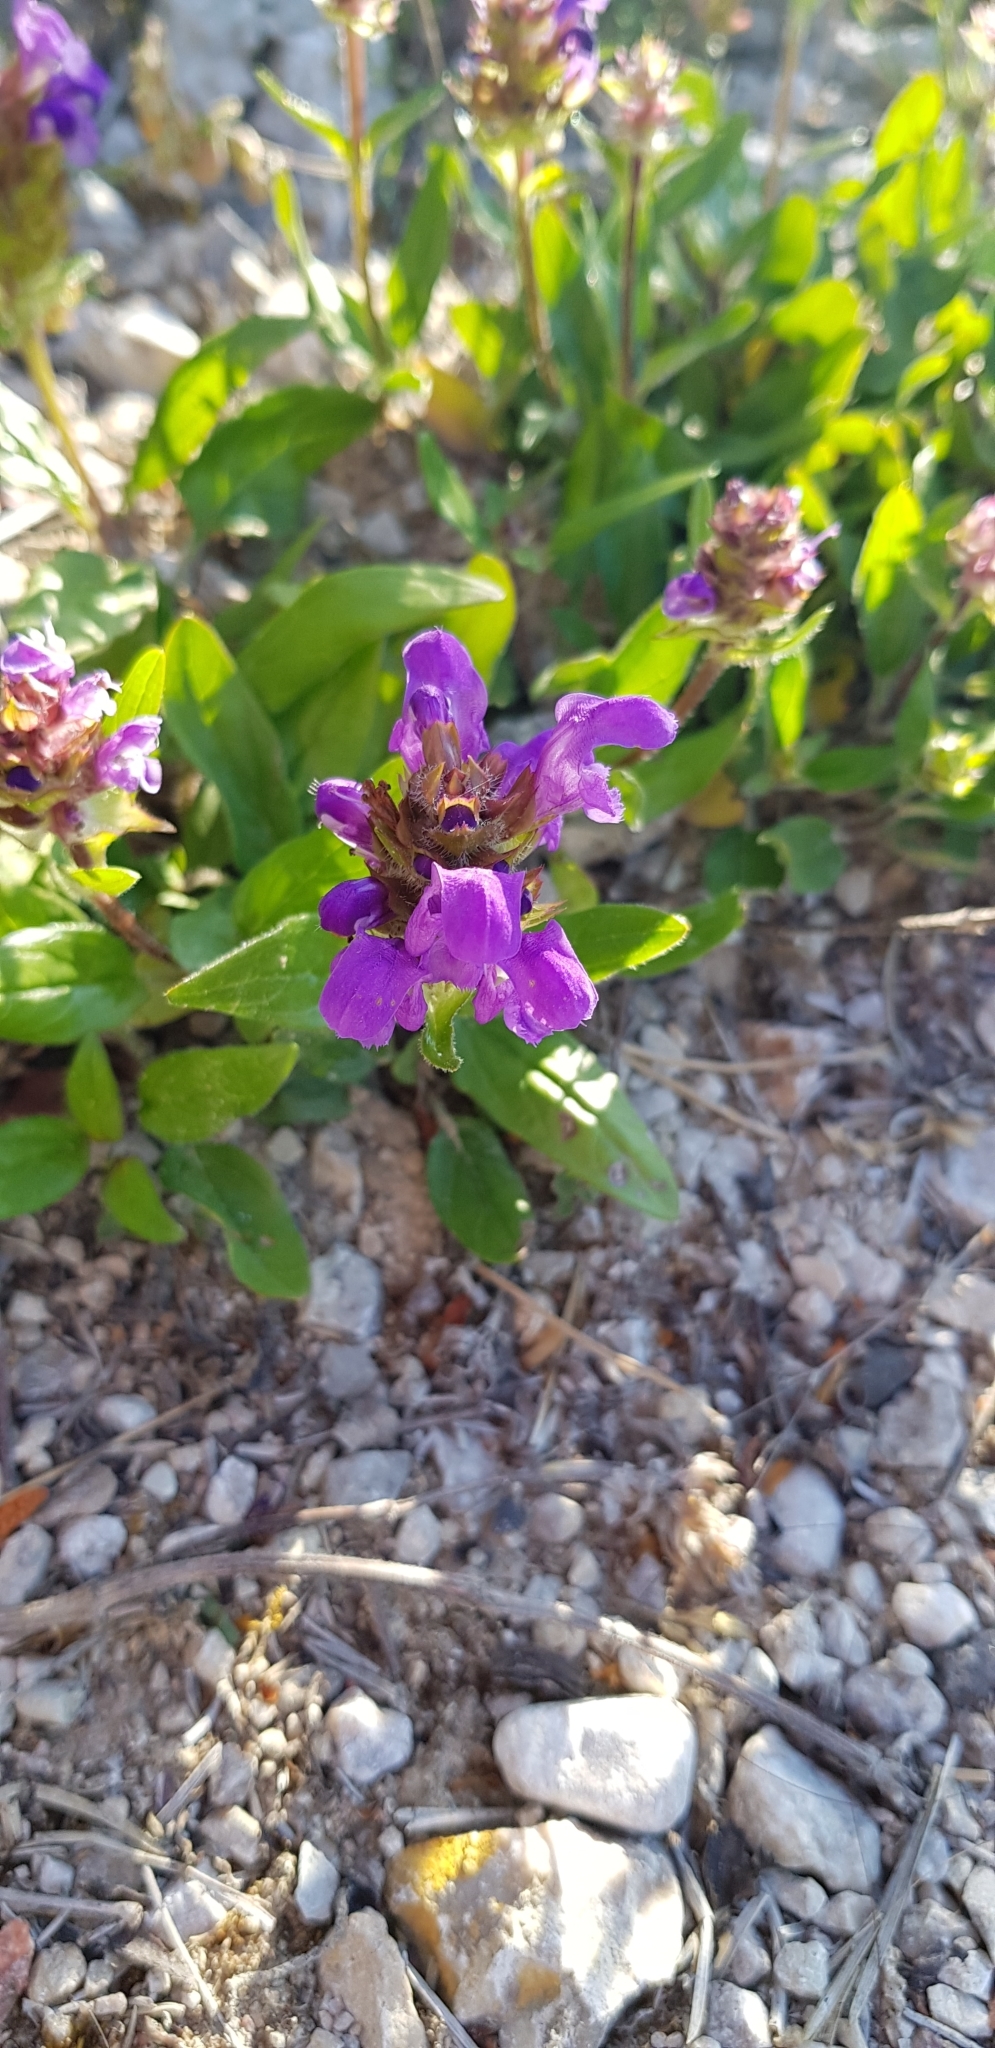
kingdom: Plantae
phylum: Tracheophyta
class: Magnoliopsida
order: Lamiales
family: Lamiaceae
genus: Prunella
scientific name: Prunella grandiflora
